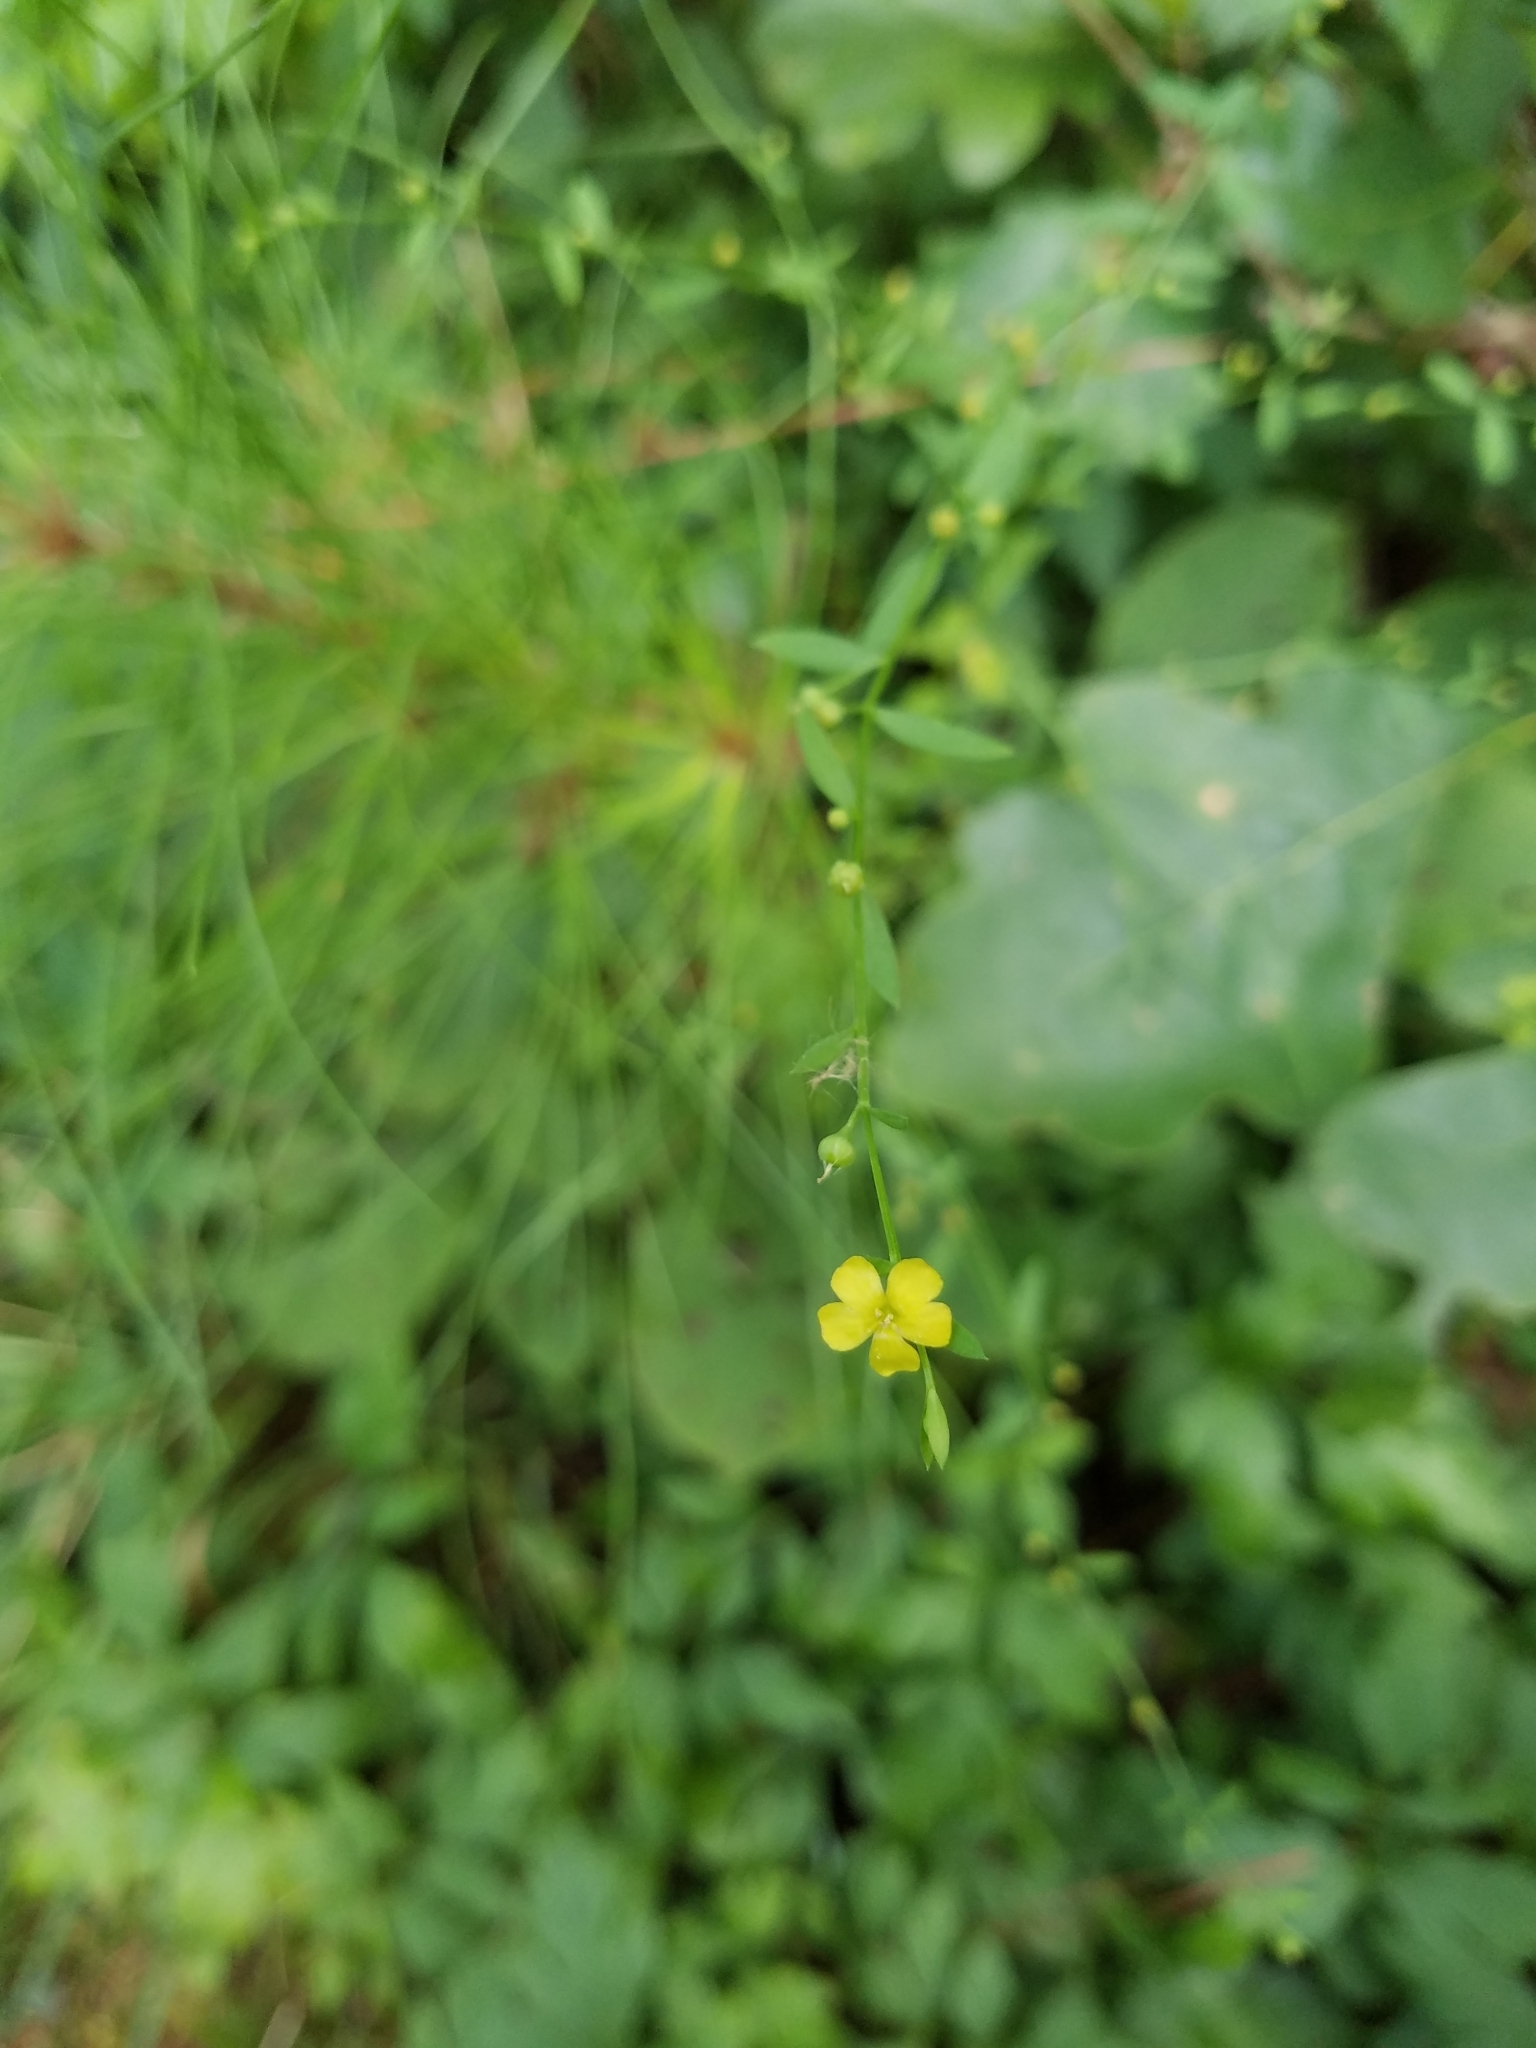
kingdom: Plantae
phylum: Tracheophyta
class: Magnoliopsida
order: Malpighiales
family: Linaceae
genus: Linum
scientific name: Linum virginianum
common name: Slender yellow flax
